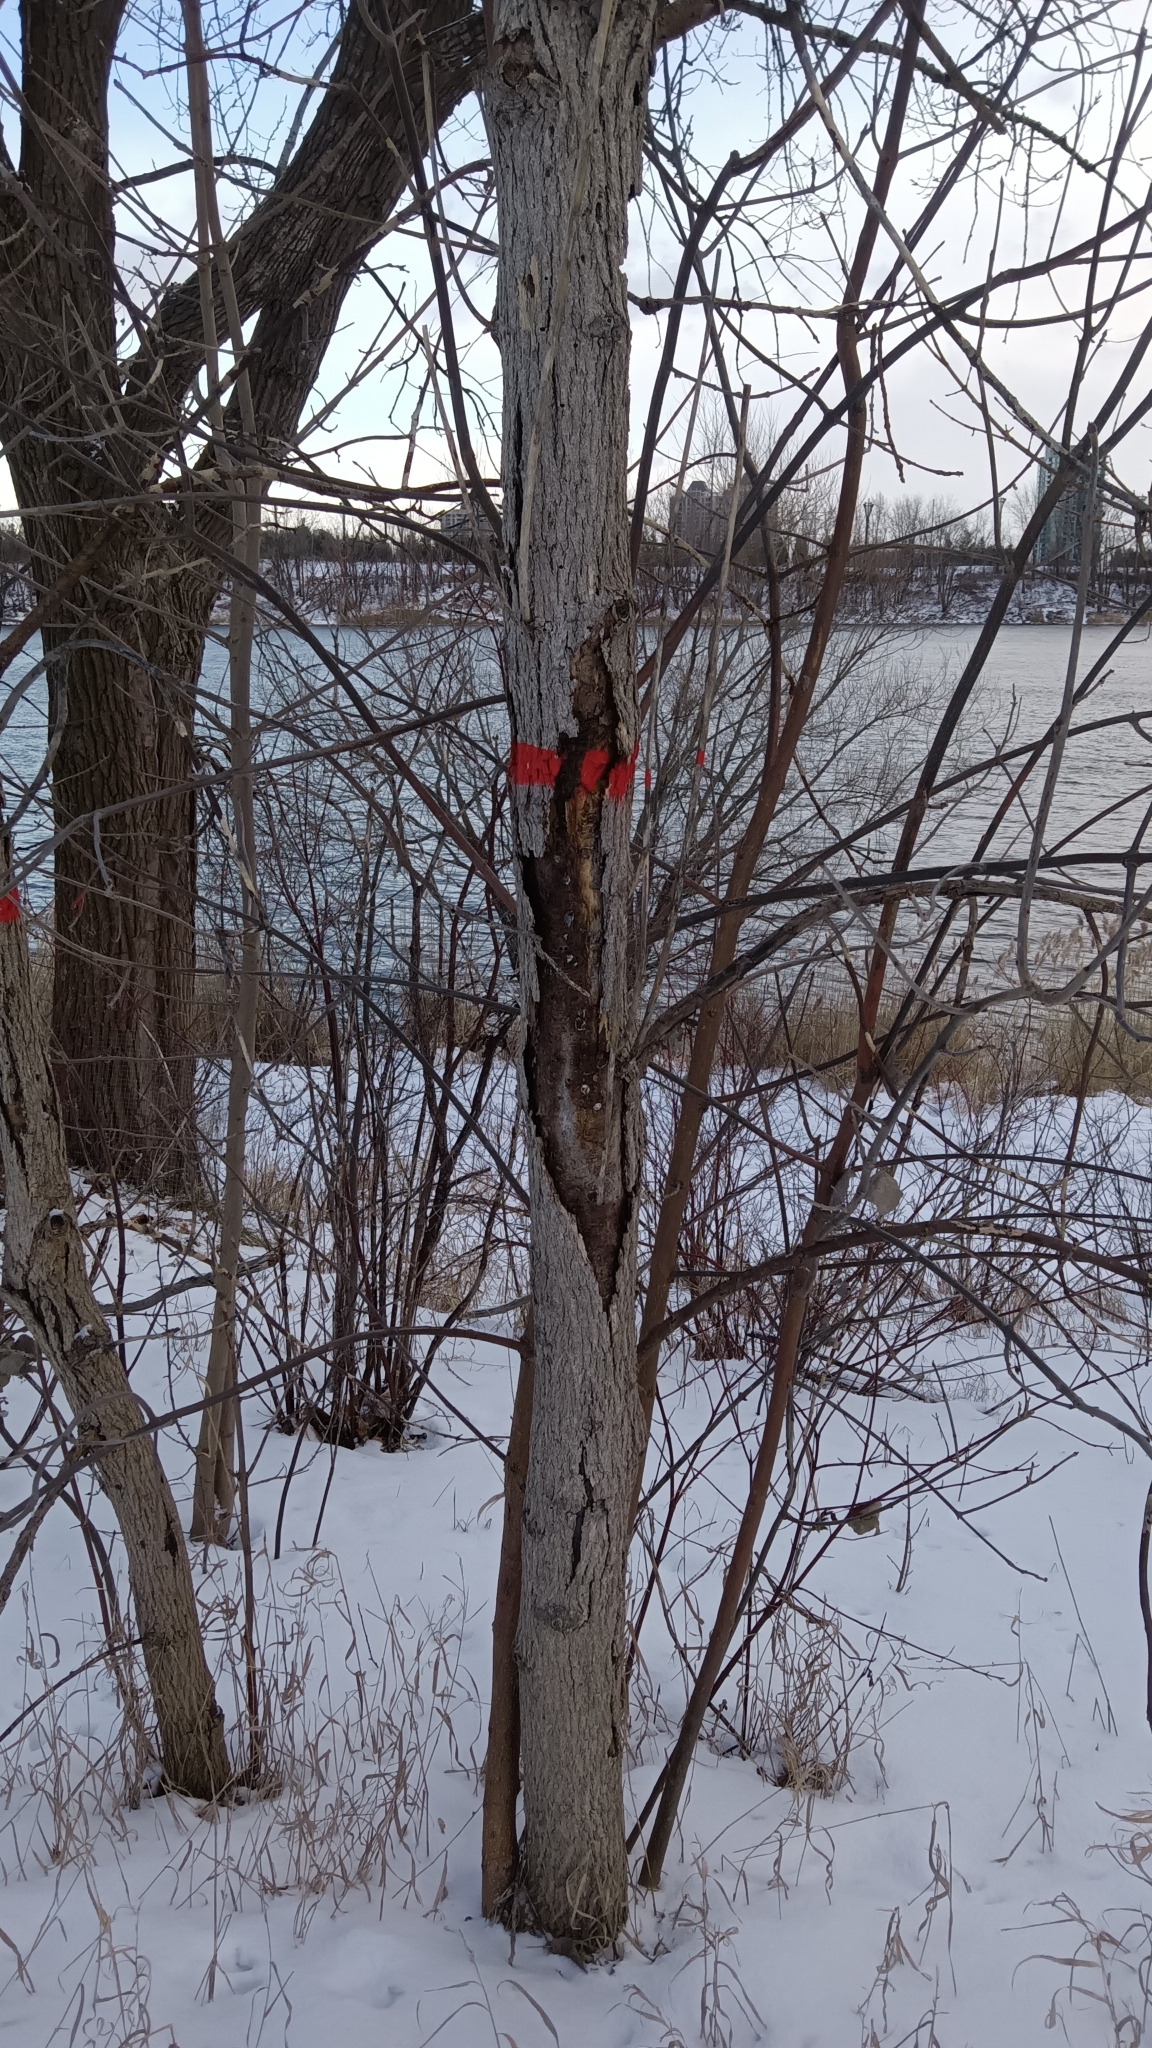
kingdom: Plantae
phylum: Tracheophyta
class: Magnoliopsida
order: Lamiales
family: Oleaceae
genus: Fraxinus
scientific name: Fraxinus pennsylvanica
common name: Green ash
